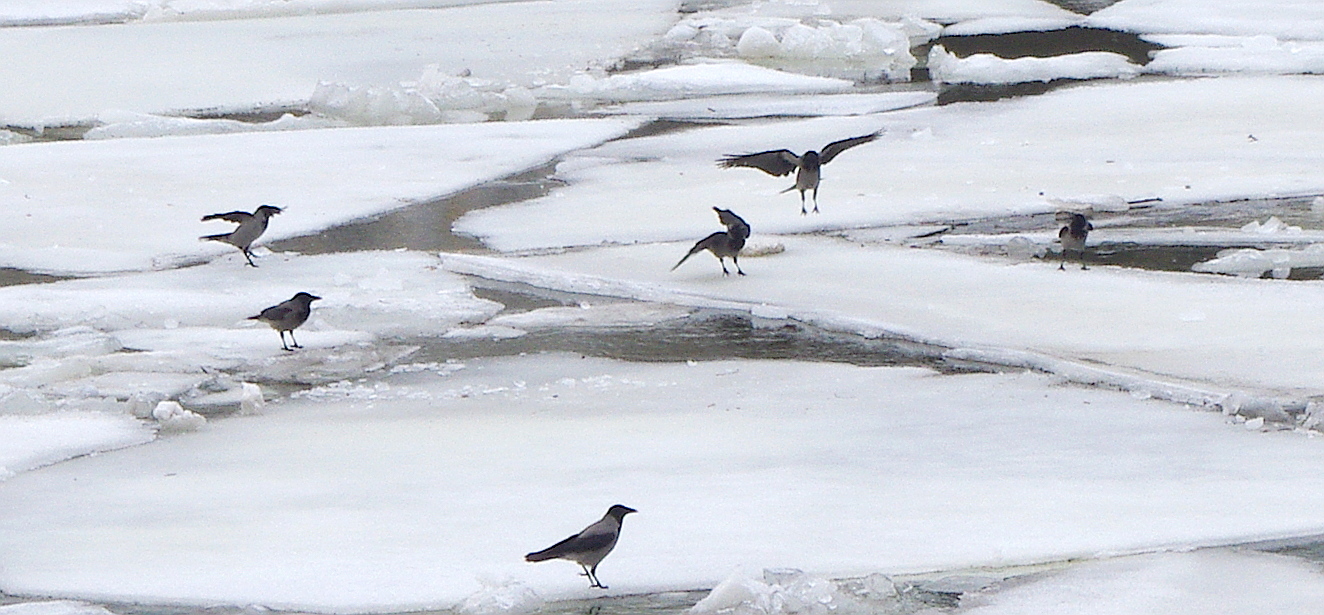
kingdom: Animalia
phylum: Chordata
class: Aves
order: Passeriformes
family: Corvidae
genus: Corvus
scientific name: Corvus cornix
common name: Hooded crow
